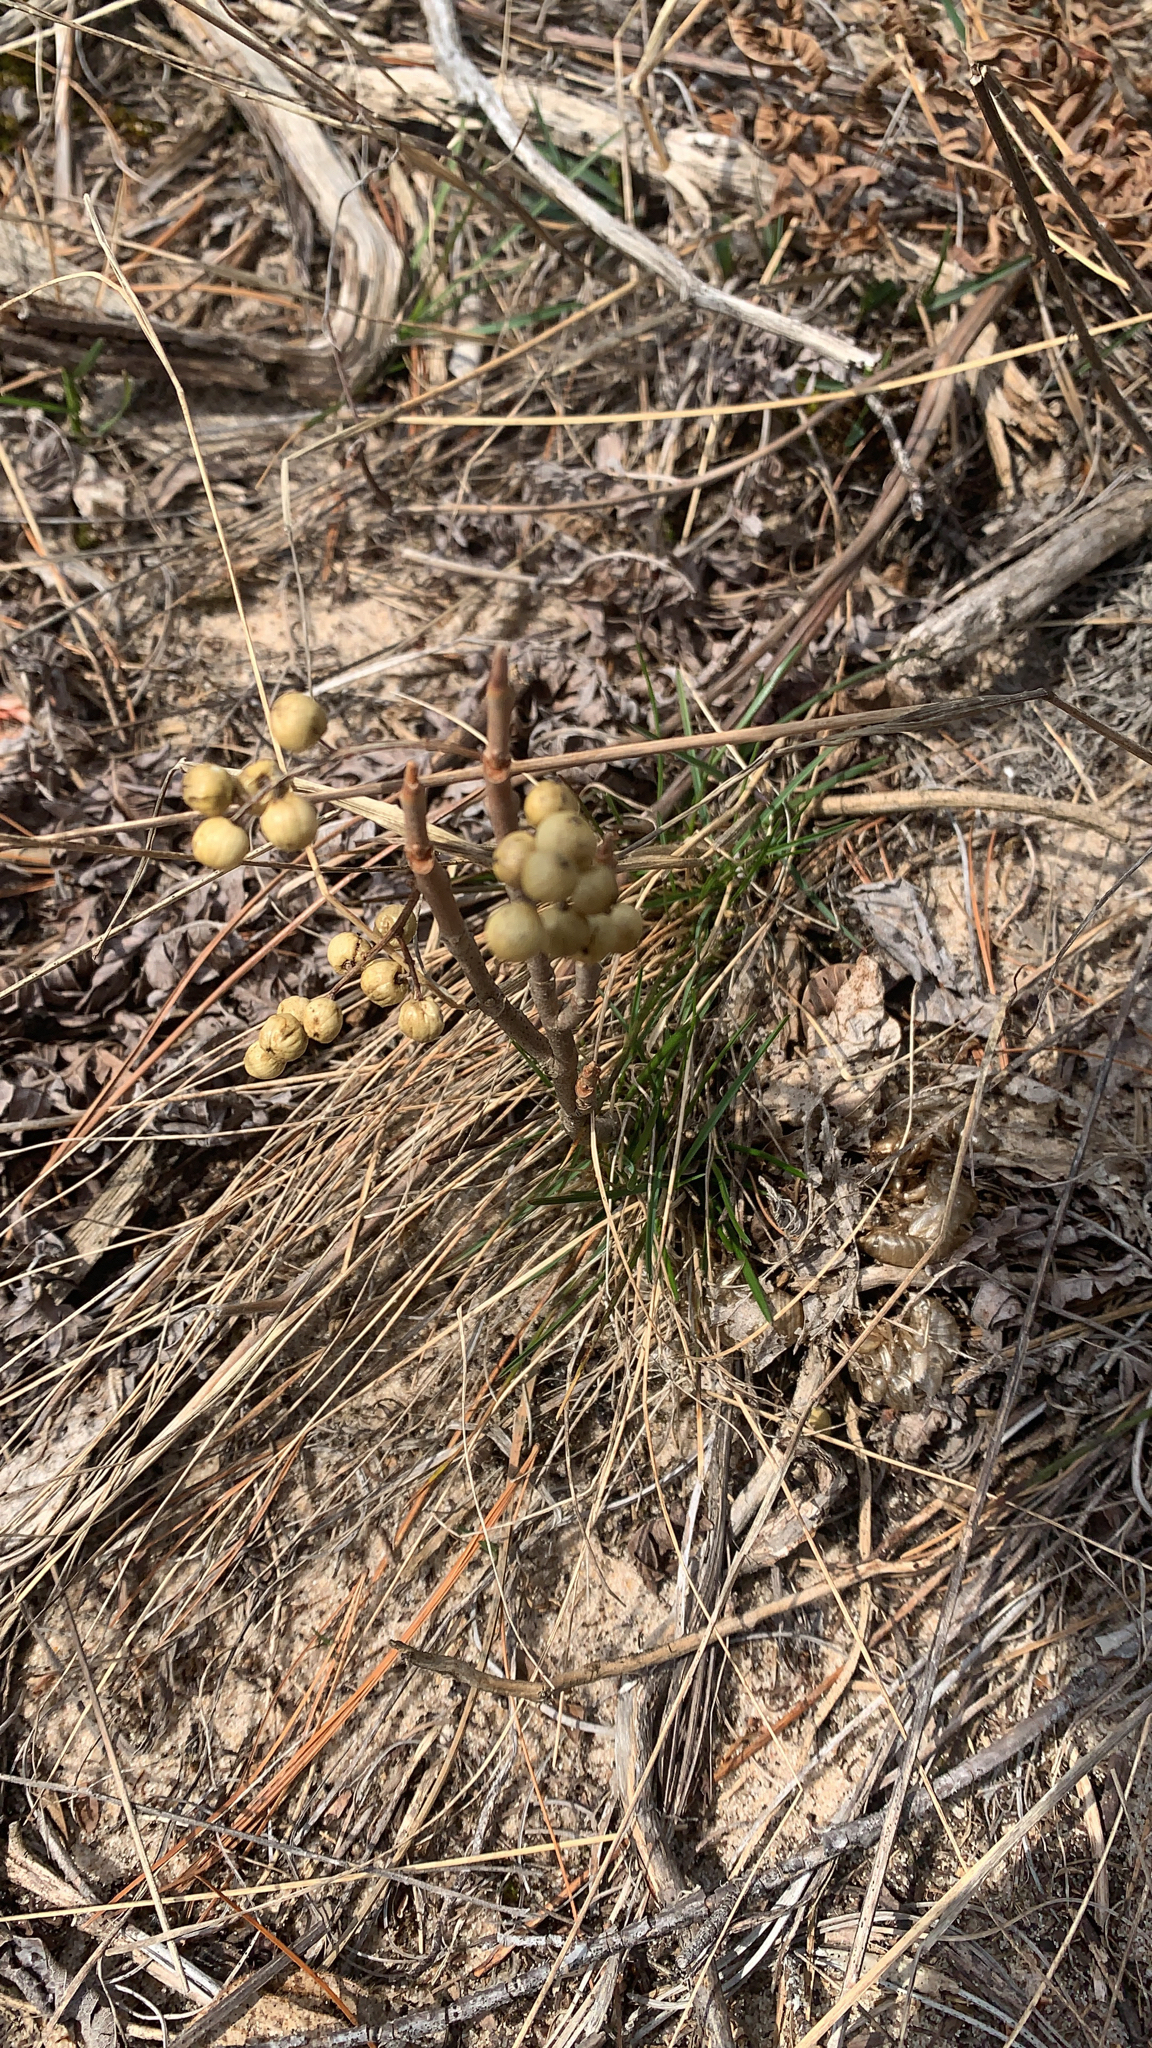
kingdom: Plantae
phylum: Tracheophyta
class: Magnoliopsida
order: Sapindales
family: Anacardiaceae
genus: Toxicodendron
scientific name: Toxicodendron rydbergii
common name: Rydberg's poison-ivy
